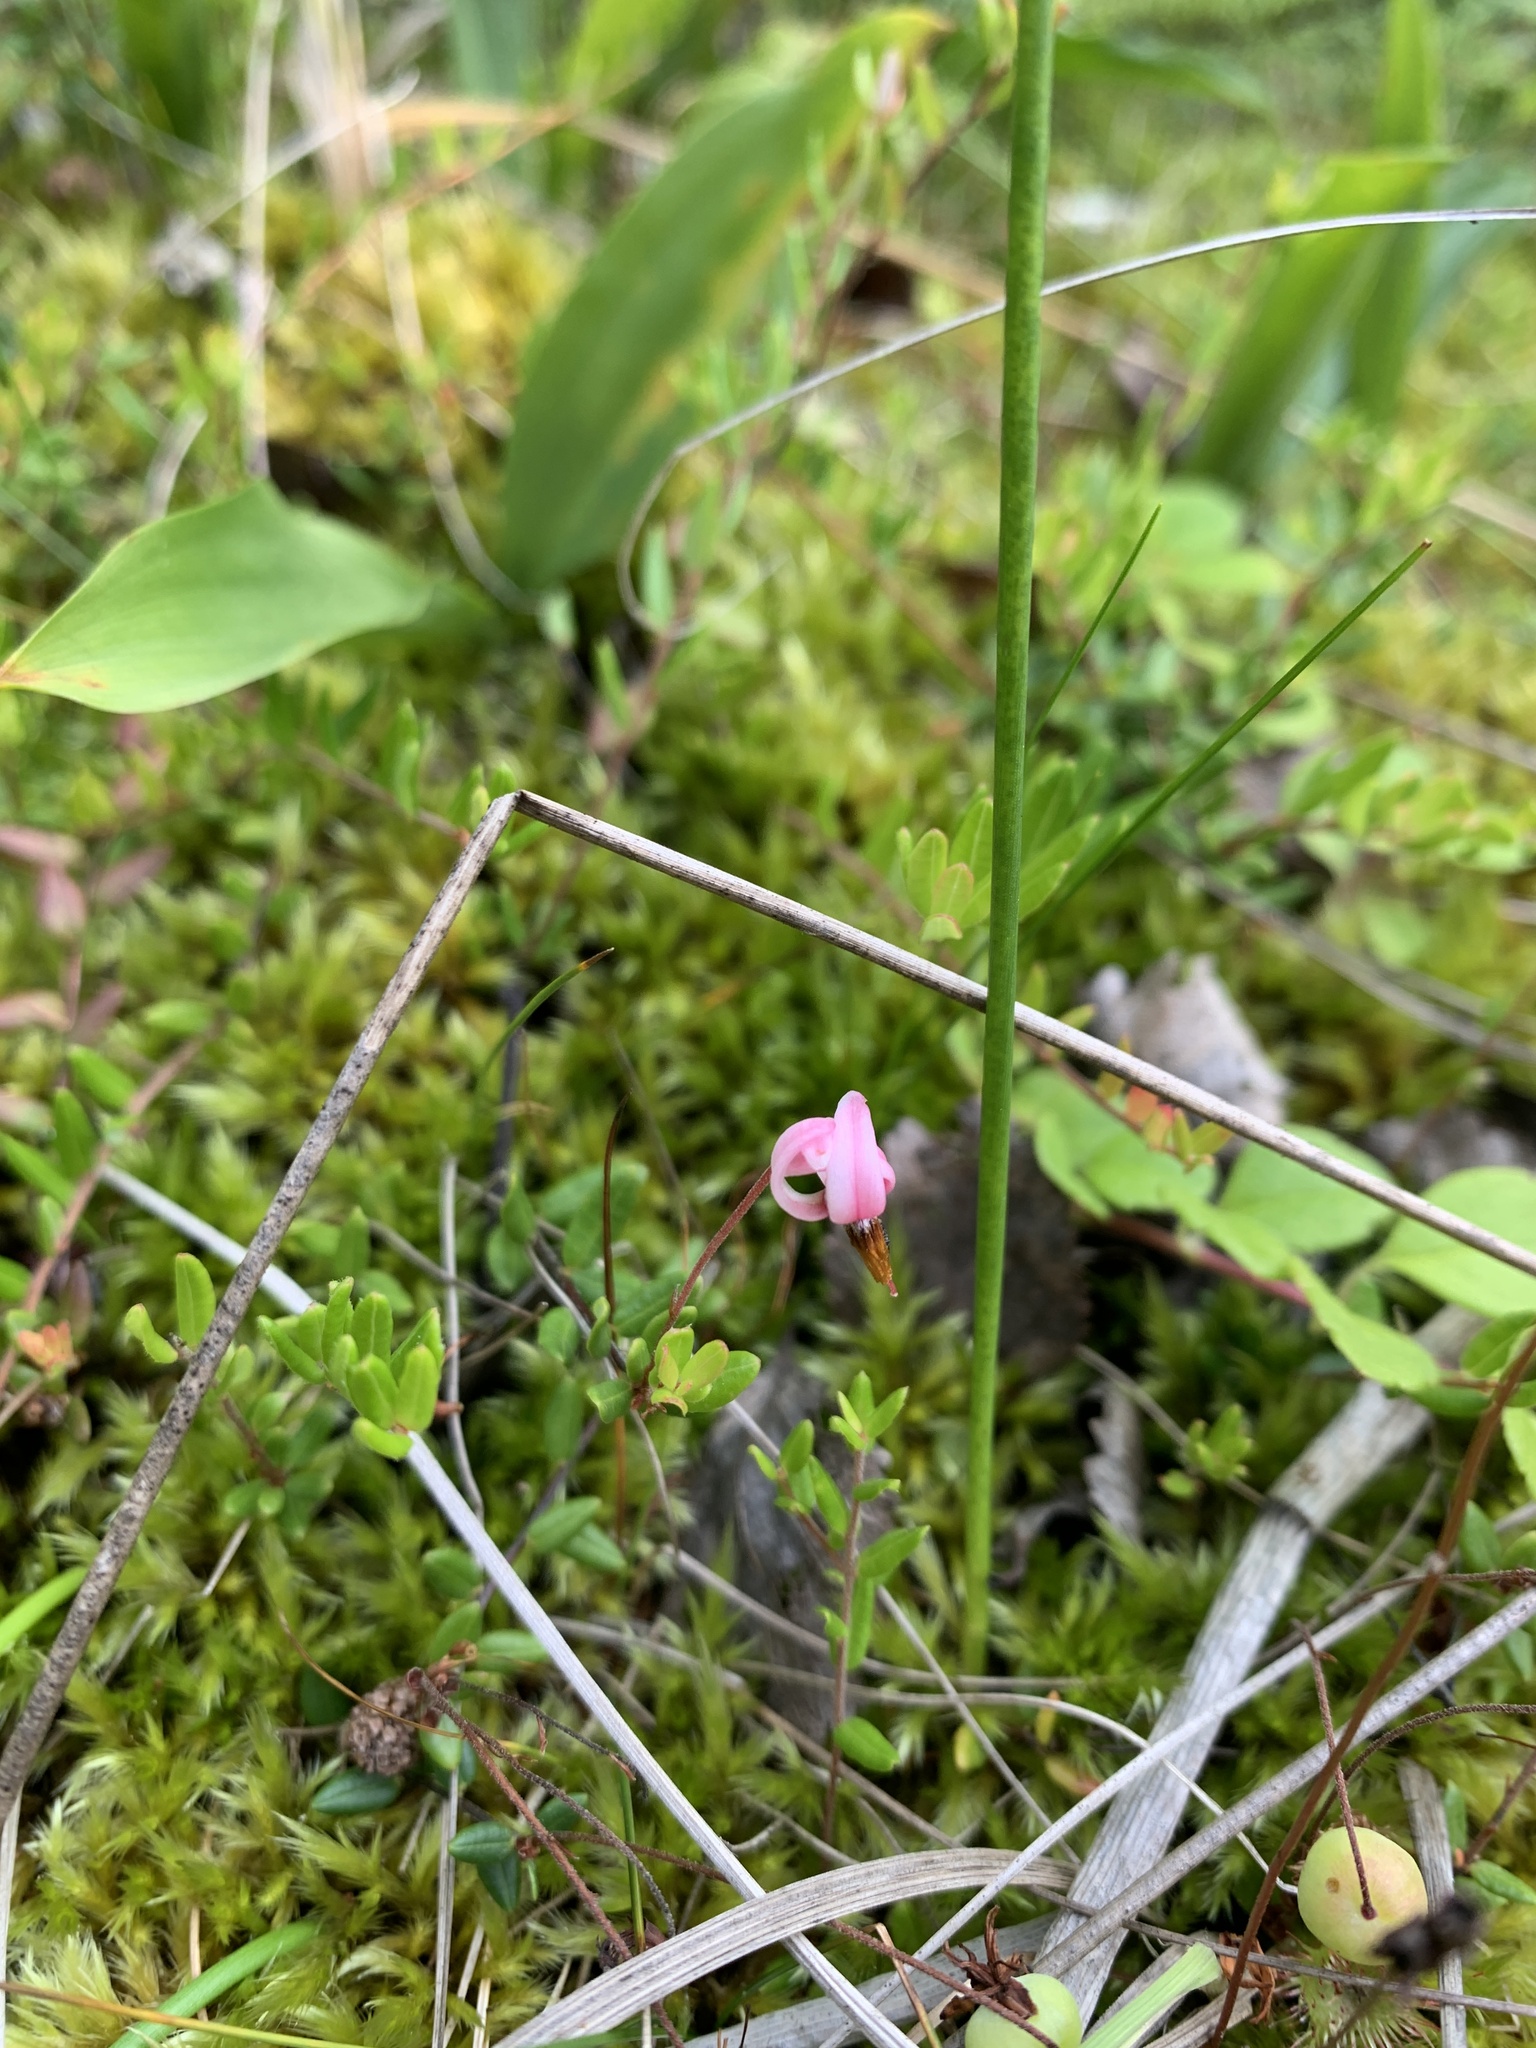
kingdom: Plantae
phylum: Tracheophyta
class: Magnoliopsida
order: Ericales
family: Ericaceae
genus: Vaccinium
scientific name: Vaccinium oxycoccos
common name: Cranberry
